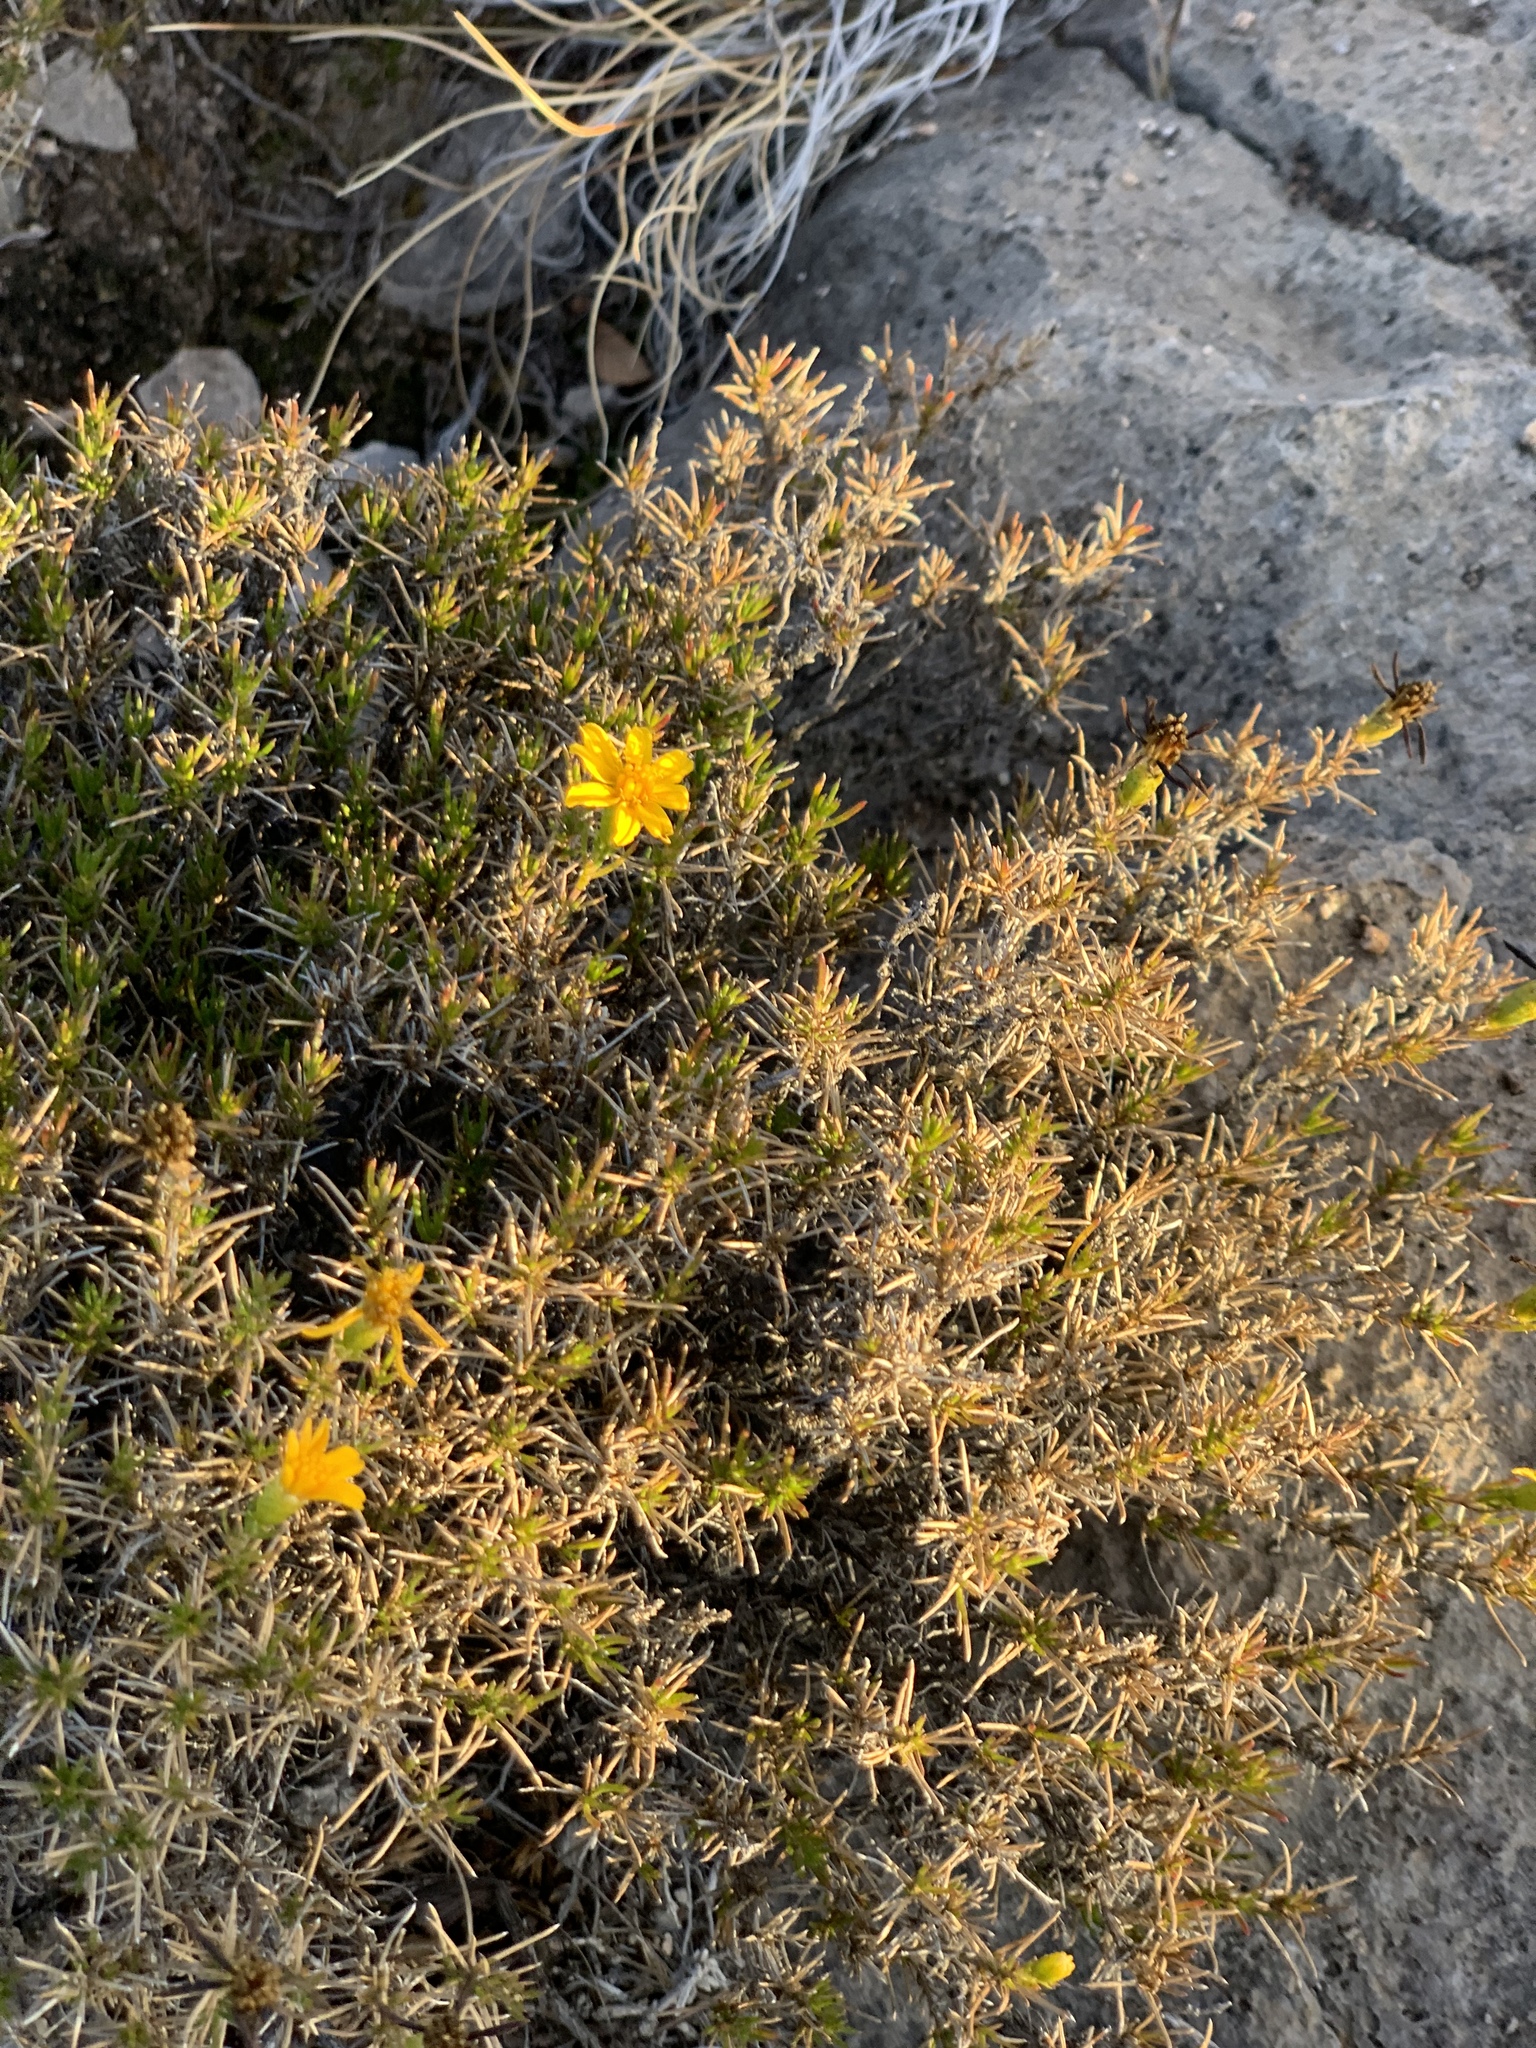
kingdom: Plantae
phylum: Tracheophyta
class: Magnoliopsida
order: Asterales
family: Asteraceae
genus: Thymophylla
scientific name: Thymophylla acerosa
